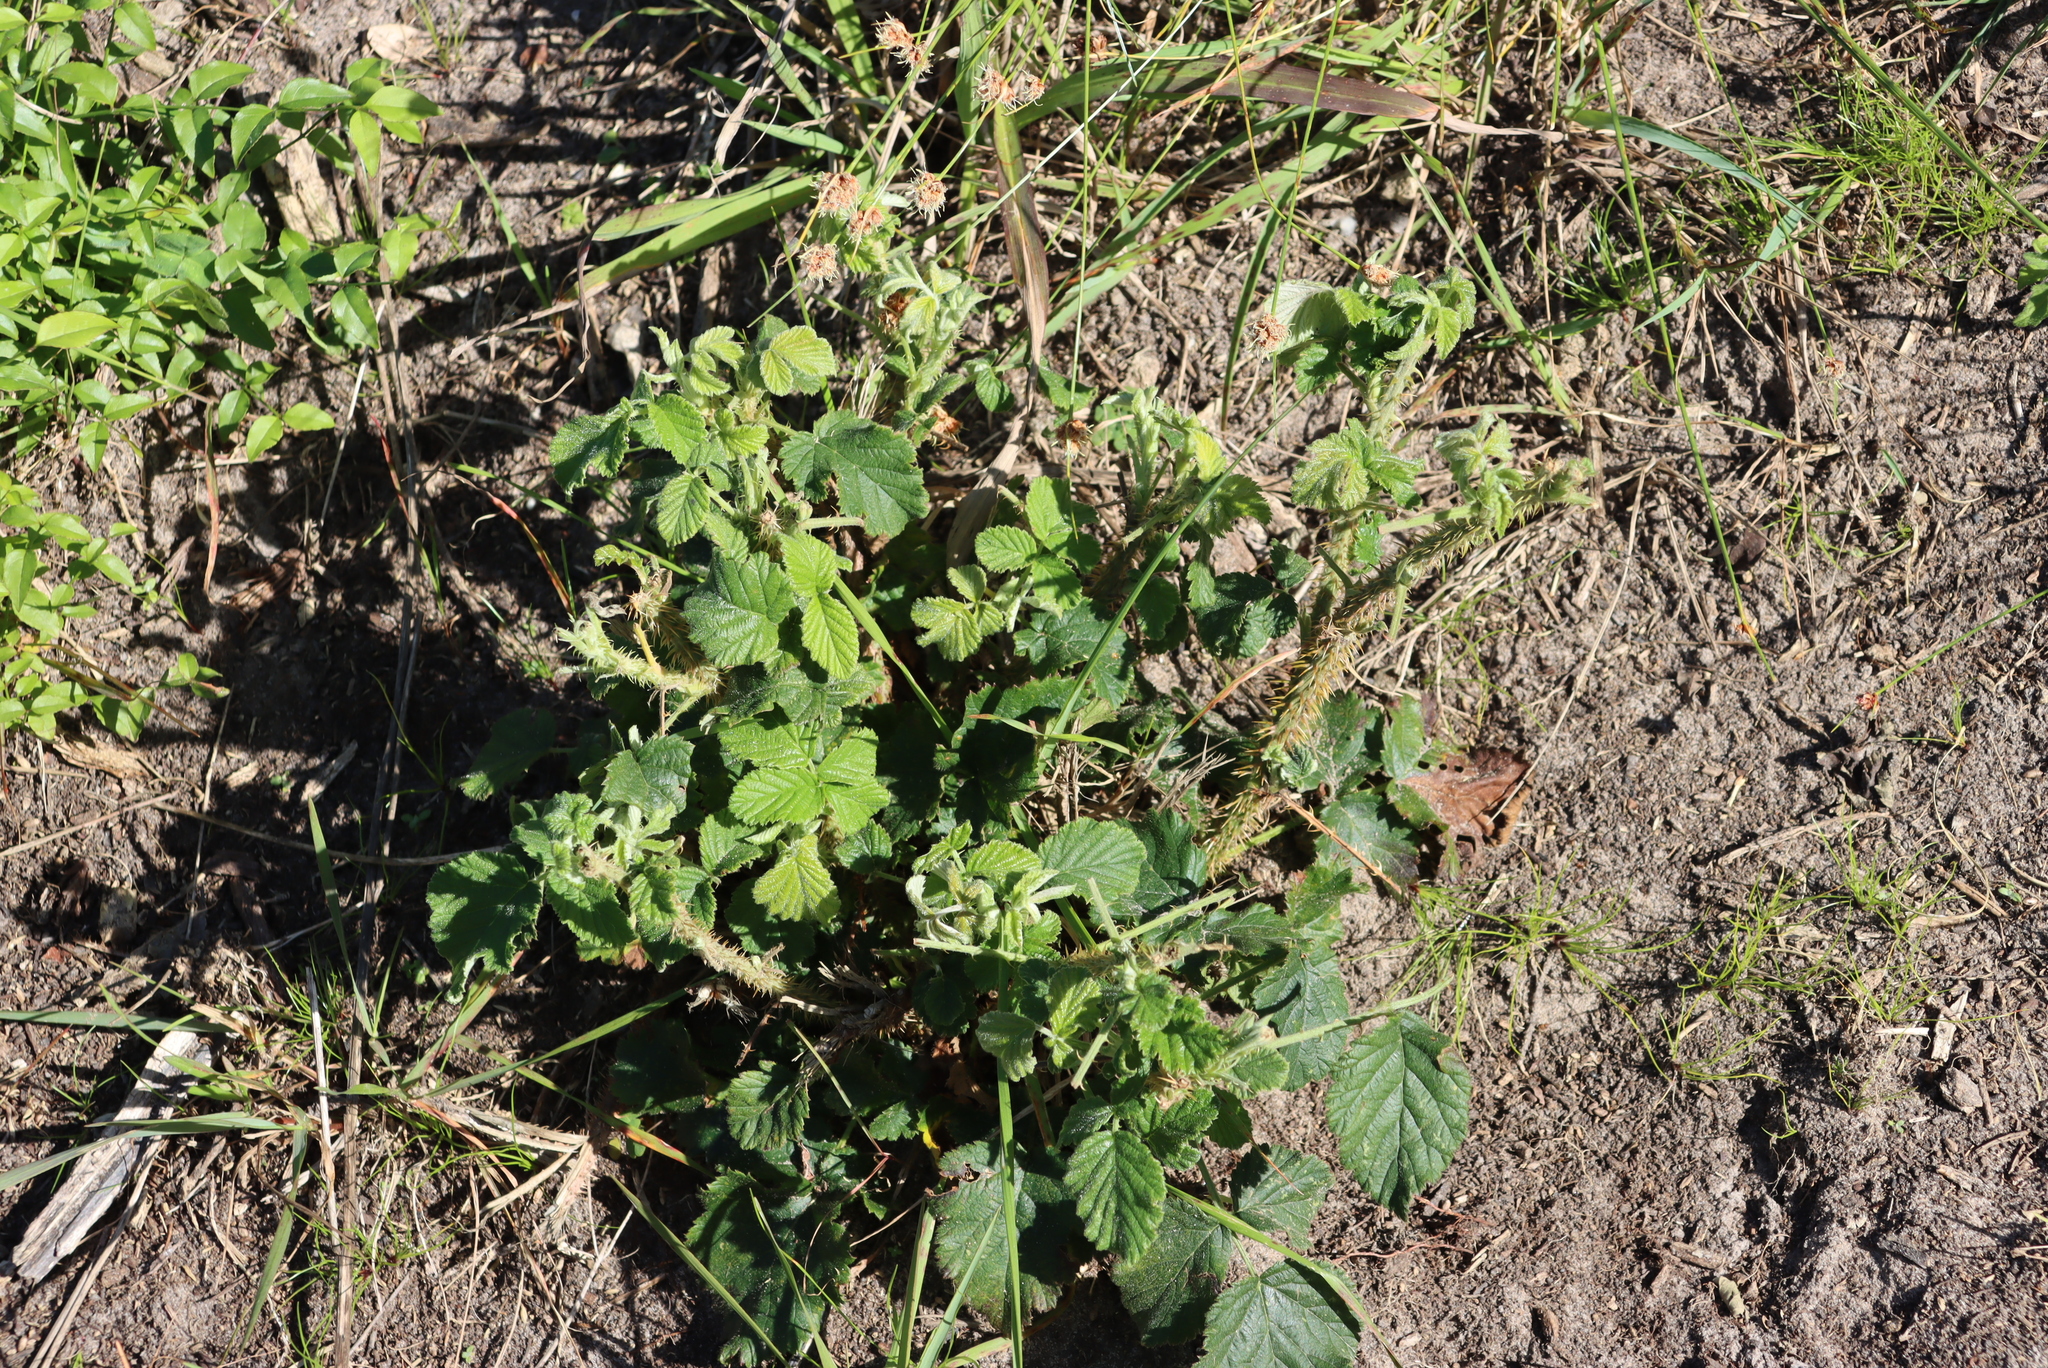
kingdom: Plantae
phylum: Tracheophyta
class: Magnoliopsida
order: Rosales
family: Rosaceae
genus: Rubus
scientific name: Rubus rigidus
